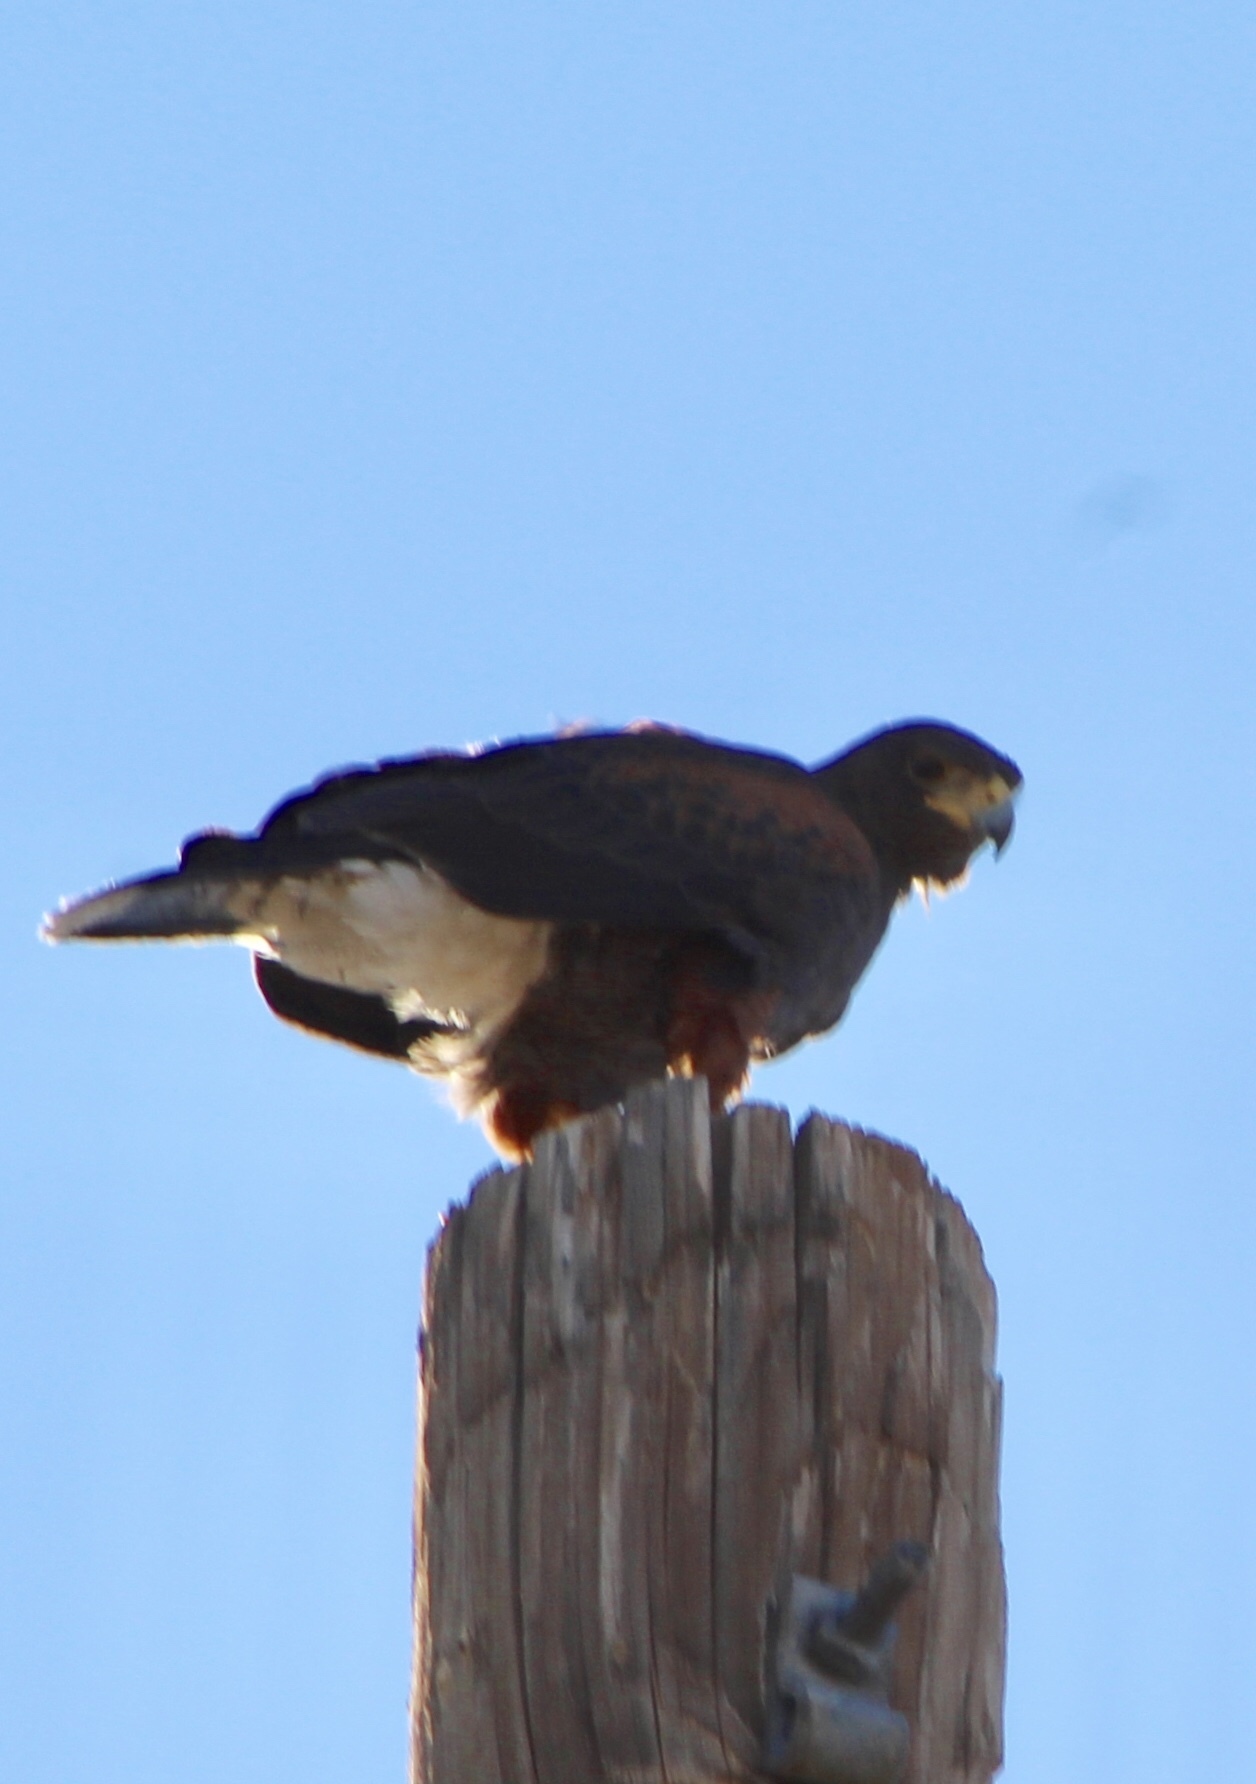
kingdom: Animalia
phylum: Chordata
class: Aves
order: Accipitriformes
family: Accipitridae
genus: Parabuteo
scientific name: Parabuteo unicinctus
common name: Harris's hawk
